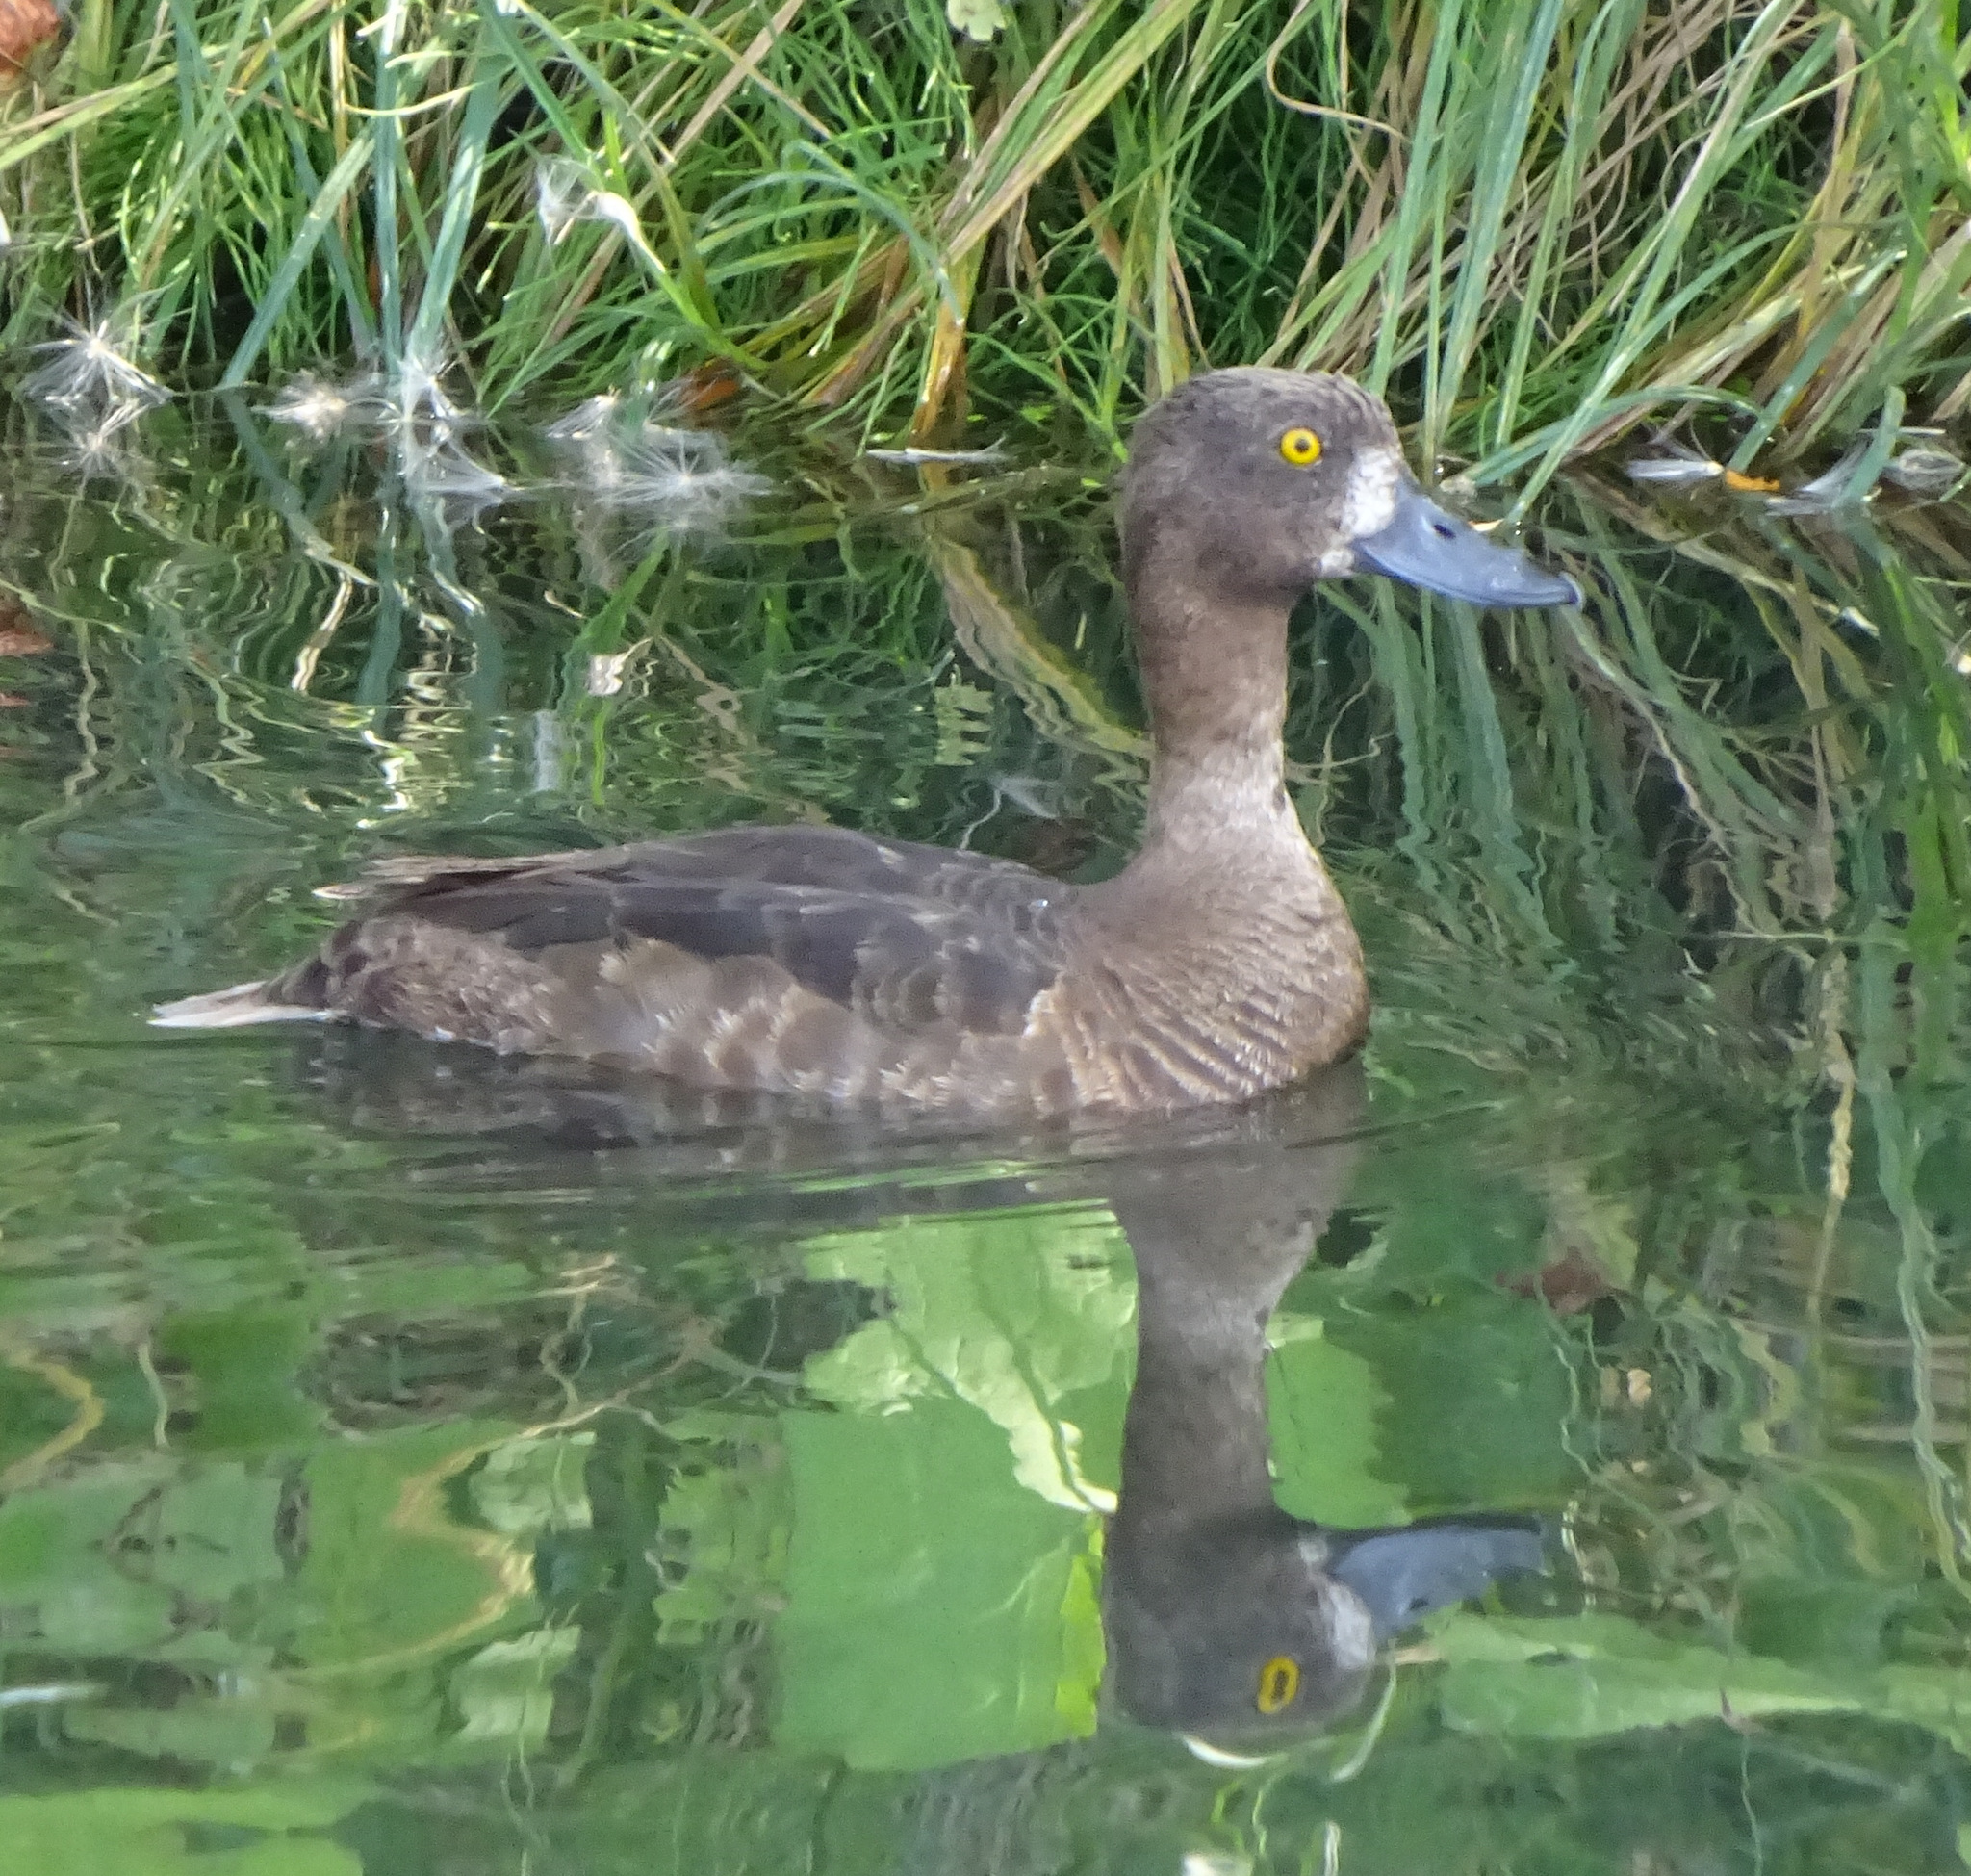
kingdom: Animalia
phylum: Chordata
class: Aves
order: Anseriformes
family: Anatidae
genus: Aythya
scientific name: Aythya fuligula
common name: Tufted duck
